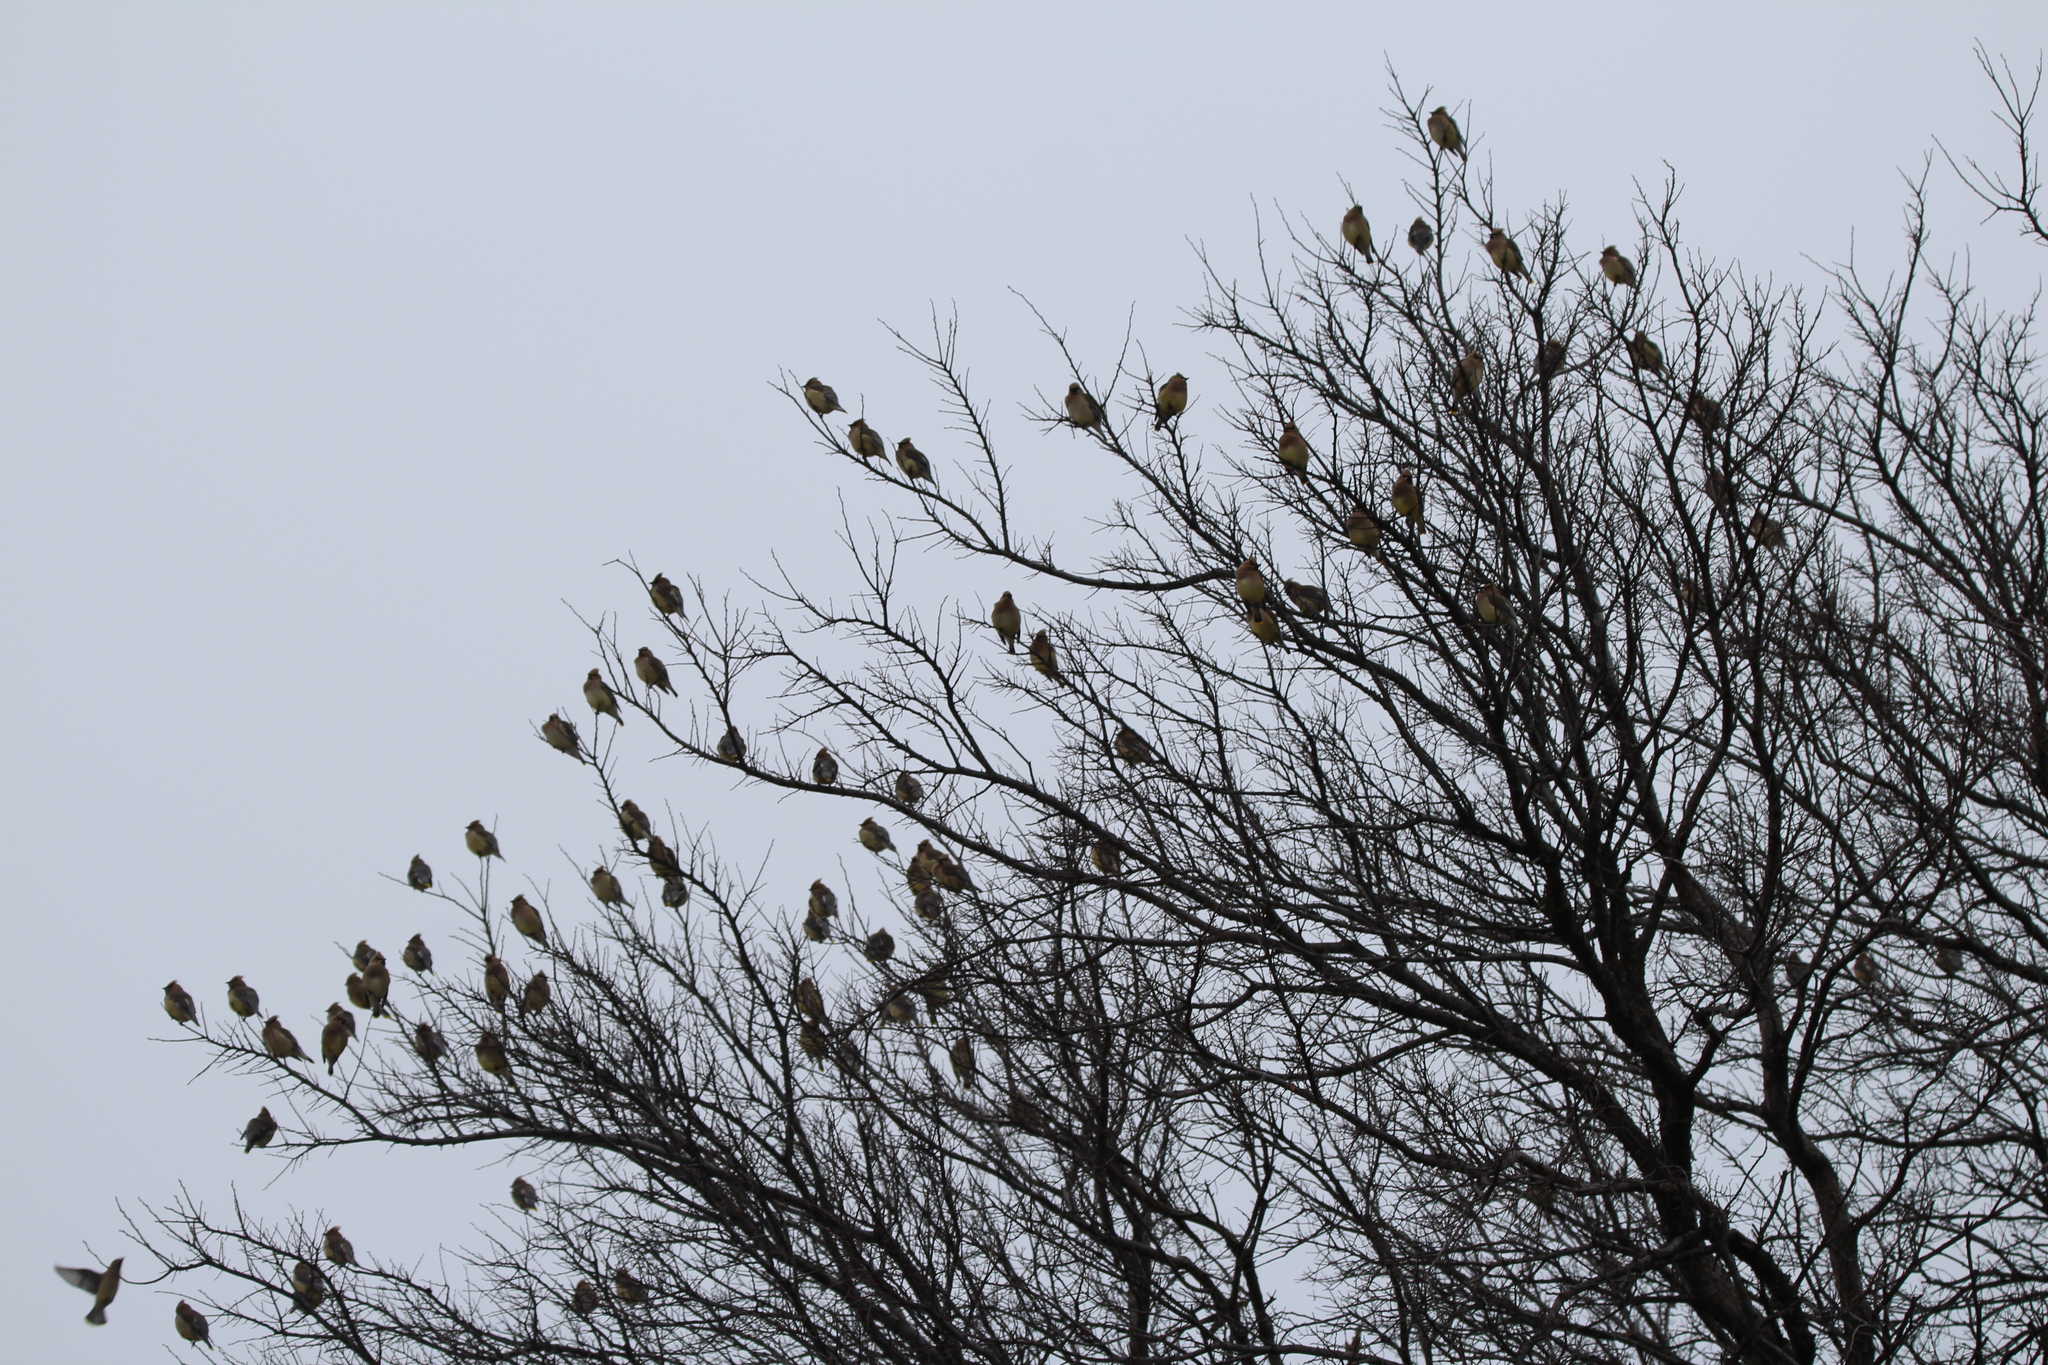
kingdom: Animalia
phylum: Chordata
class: Aves
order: Passeriformes
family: Bombycillidae
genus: Bombycilla
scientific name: Bombycilla cedrorum
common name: Cedar waxwing
